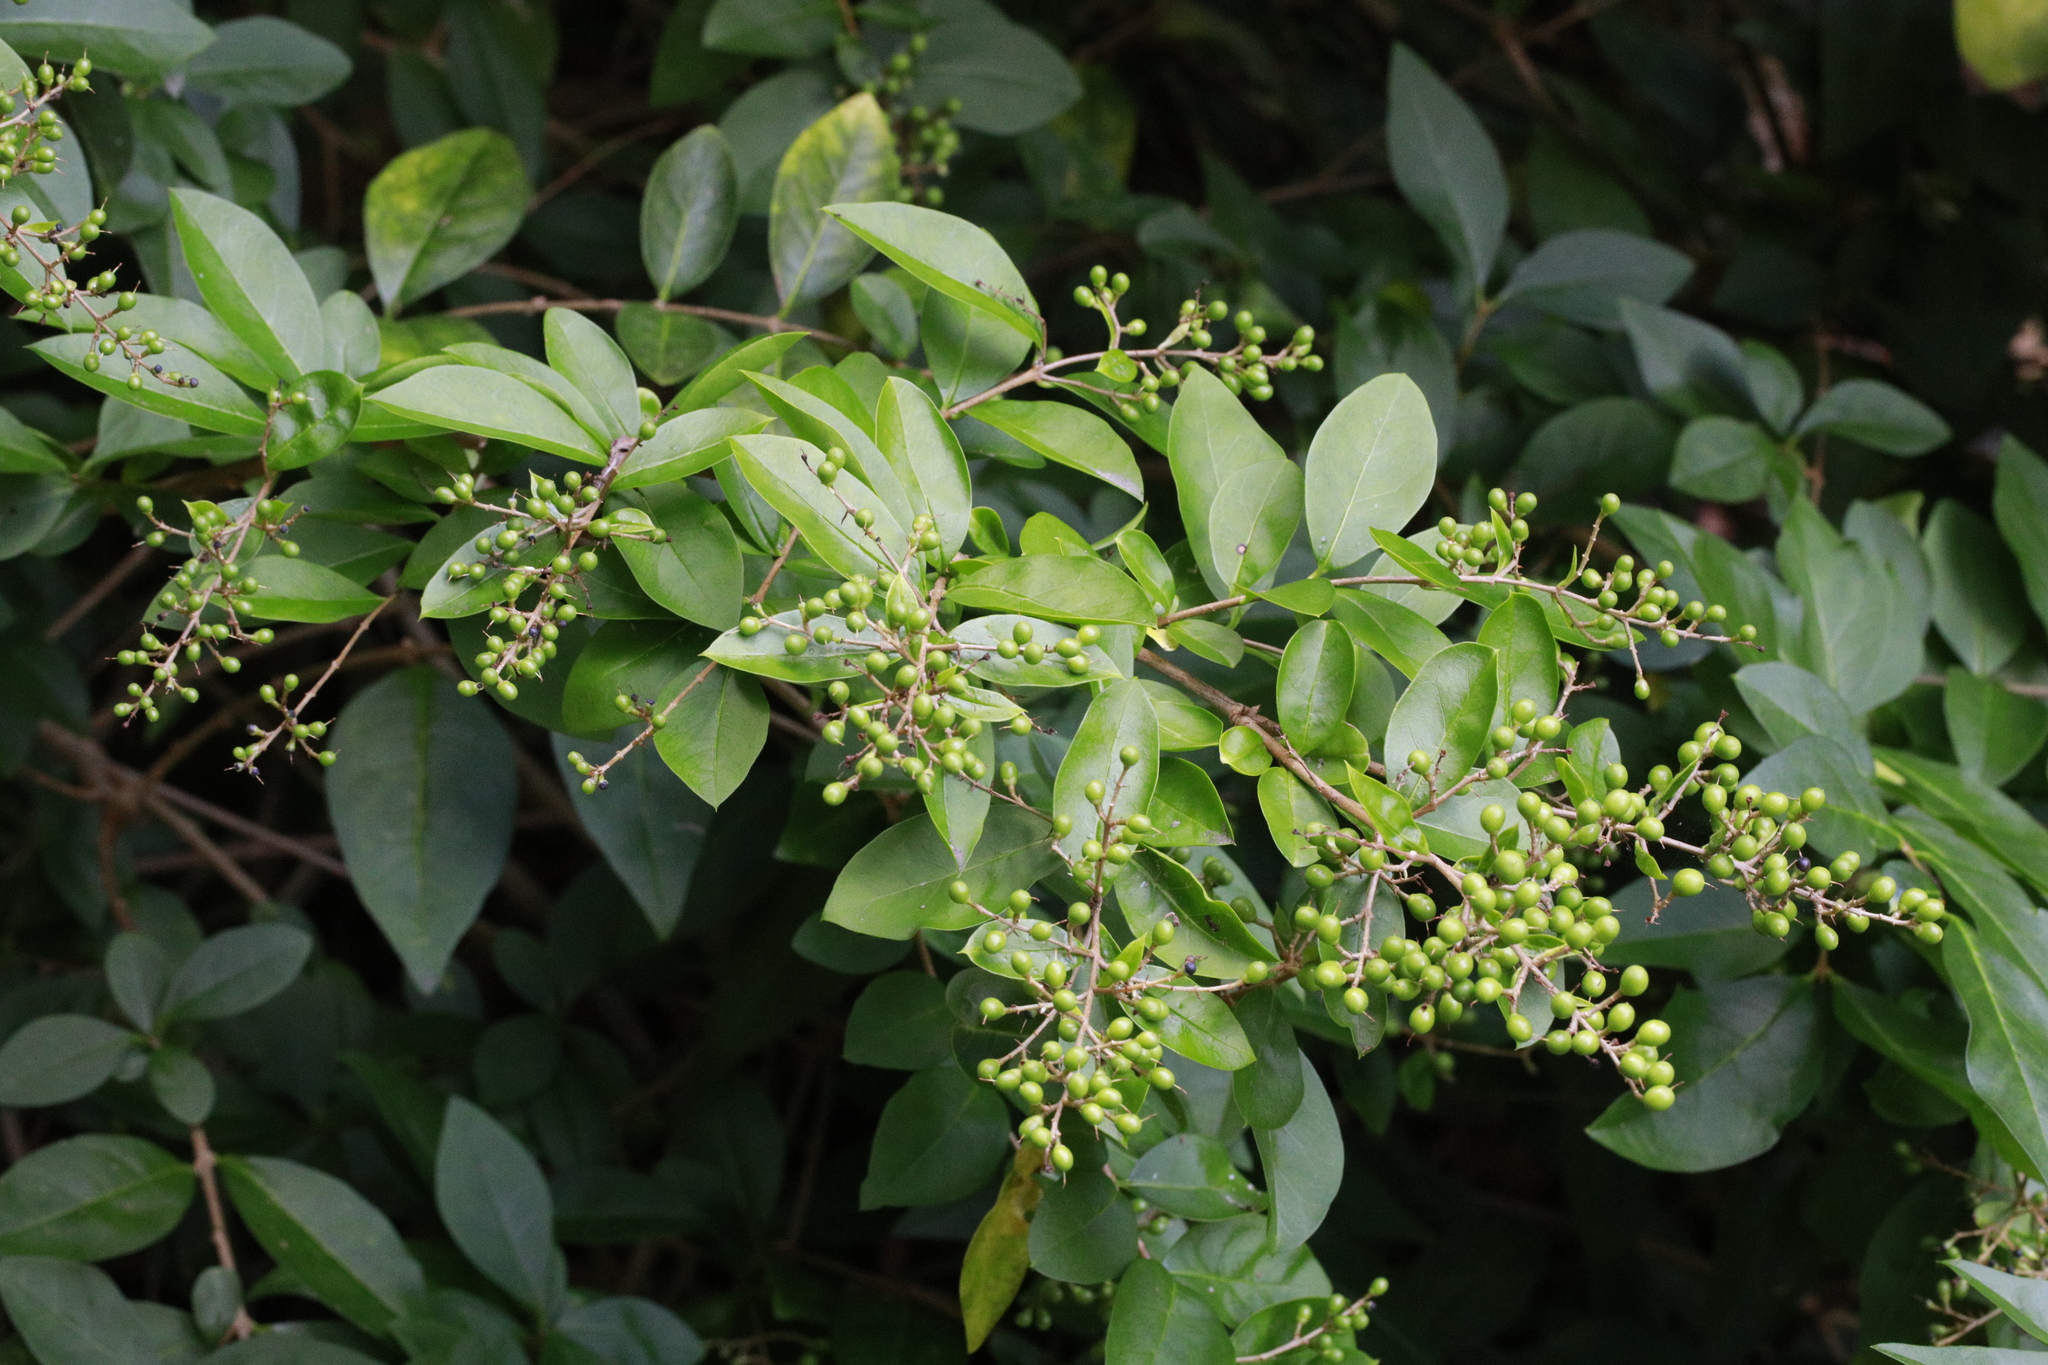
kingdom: Plantae
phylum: Tracheophyta
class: Magnoliopsida
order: Lamiales
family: Oleaceae
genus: Ligustrum
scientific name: Ligustrum ovalifolium
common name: California privet
